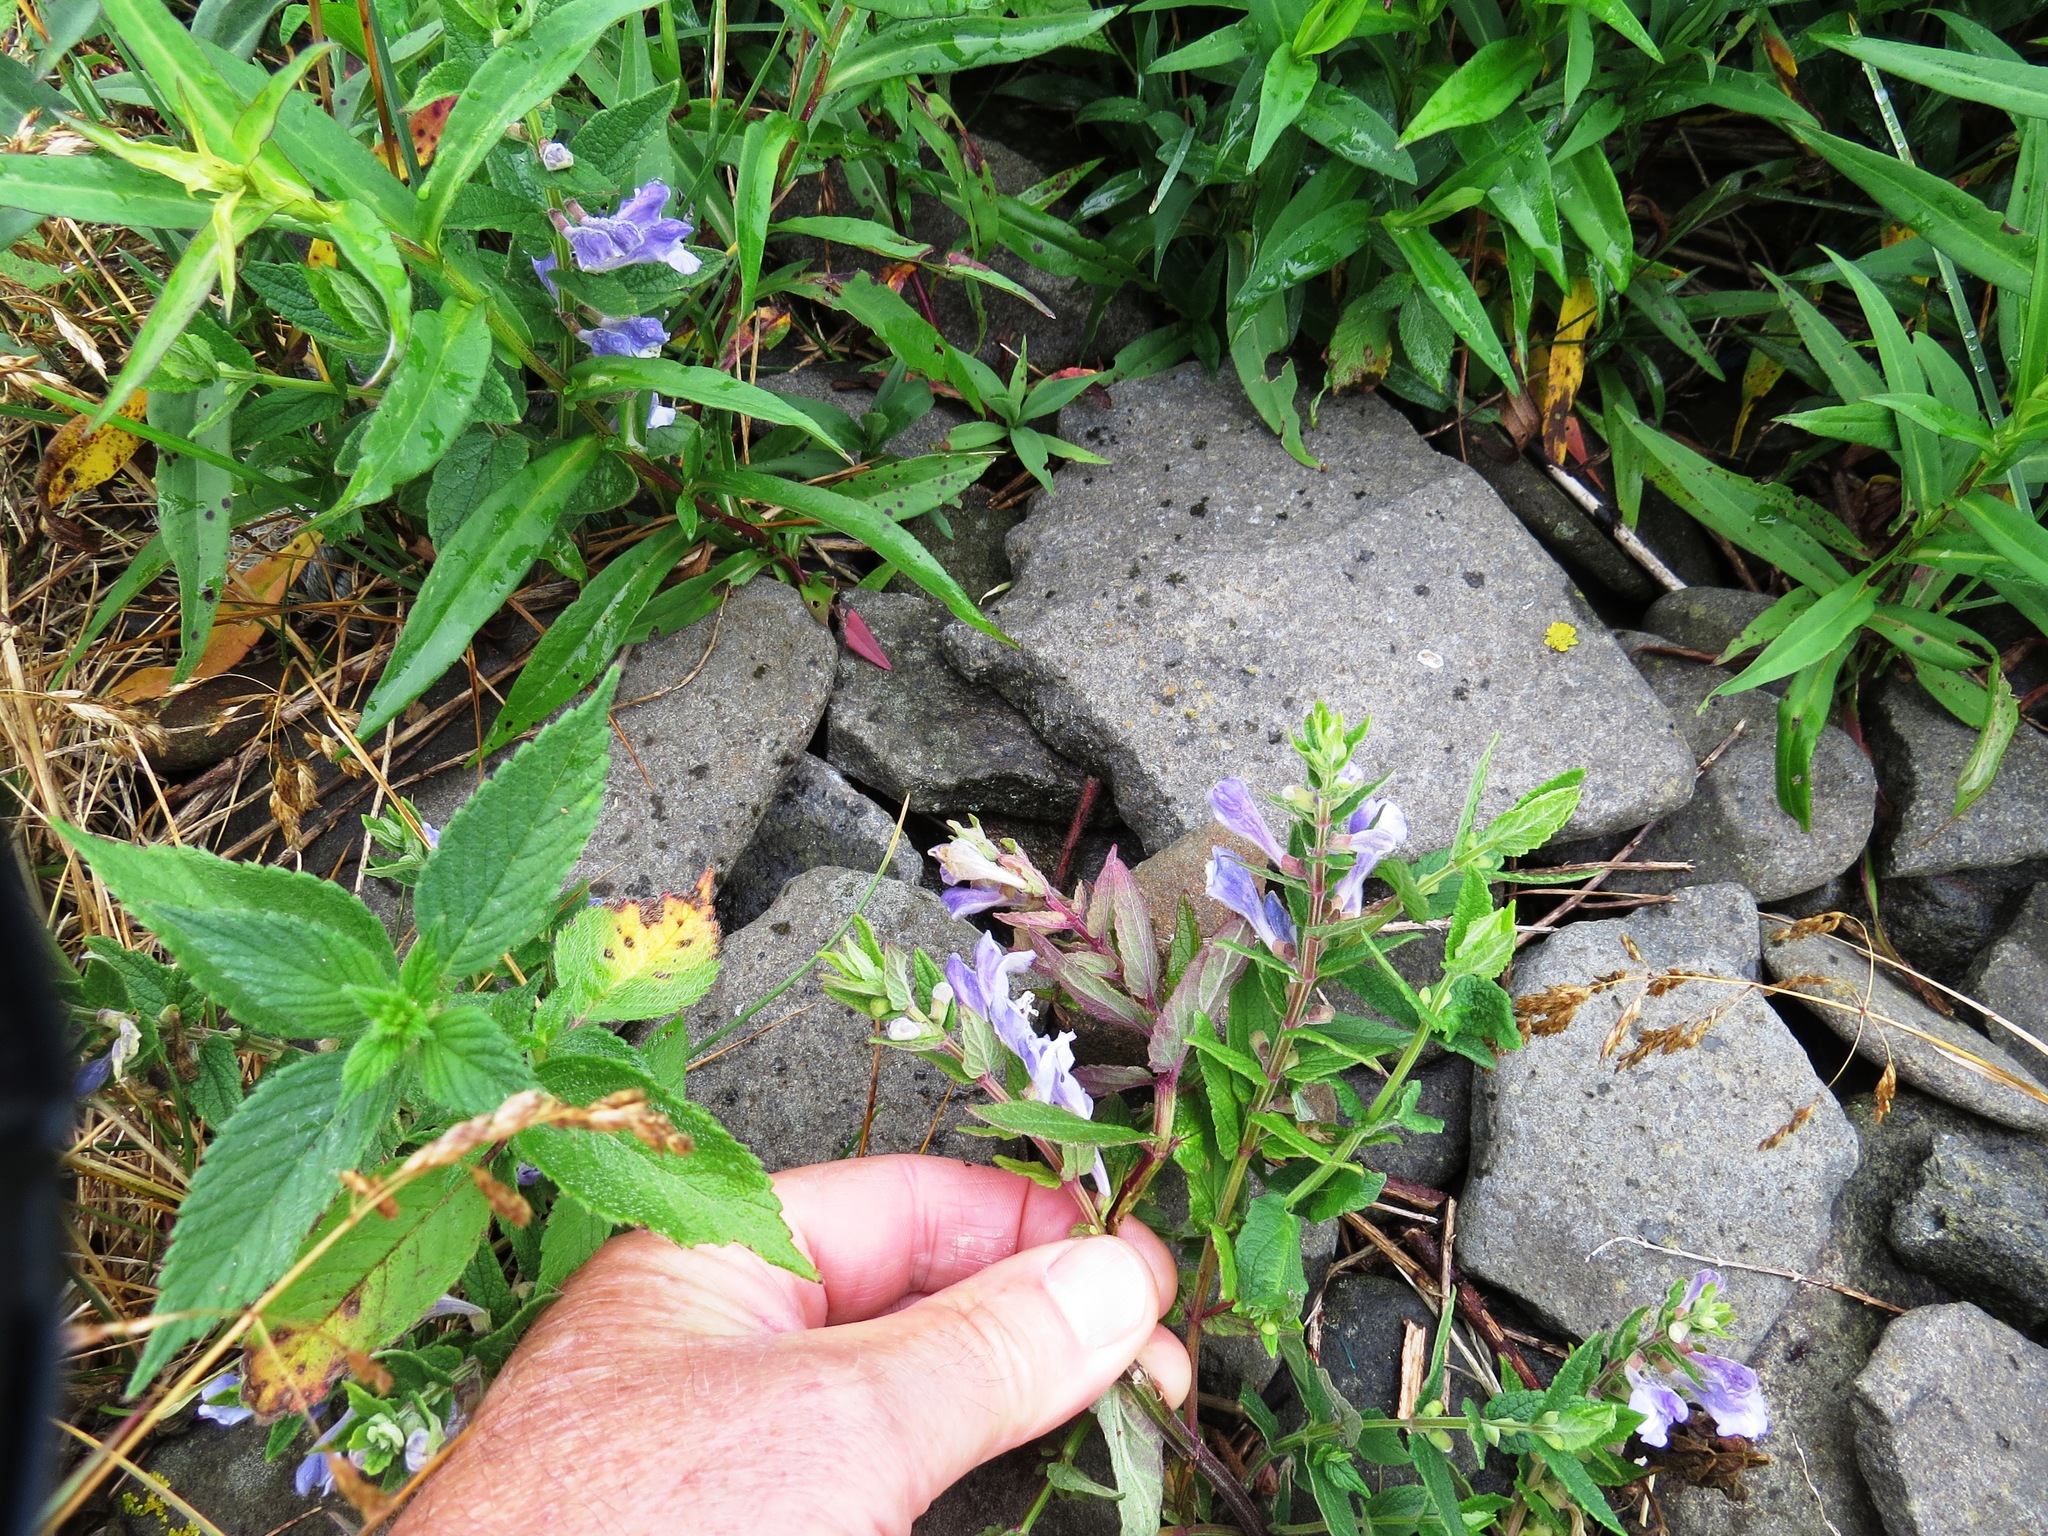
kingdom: Plantae
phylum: Tracheophyta
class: Magnoliopsida
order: Lamiales
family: Lamiaceae
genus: Scutellaria
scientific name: Scutellaria galericulata
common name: Skullcap
